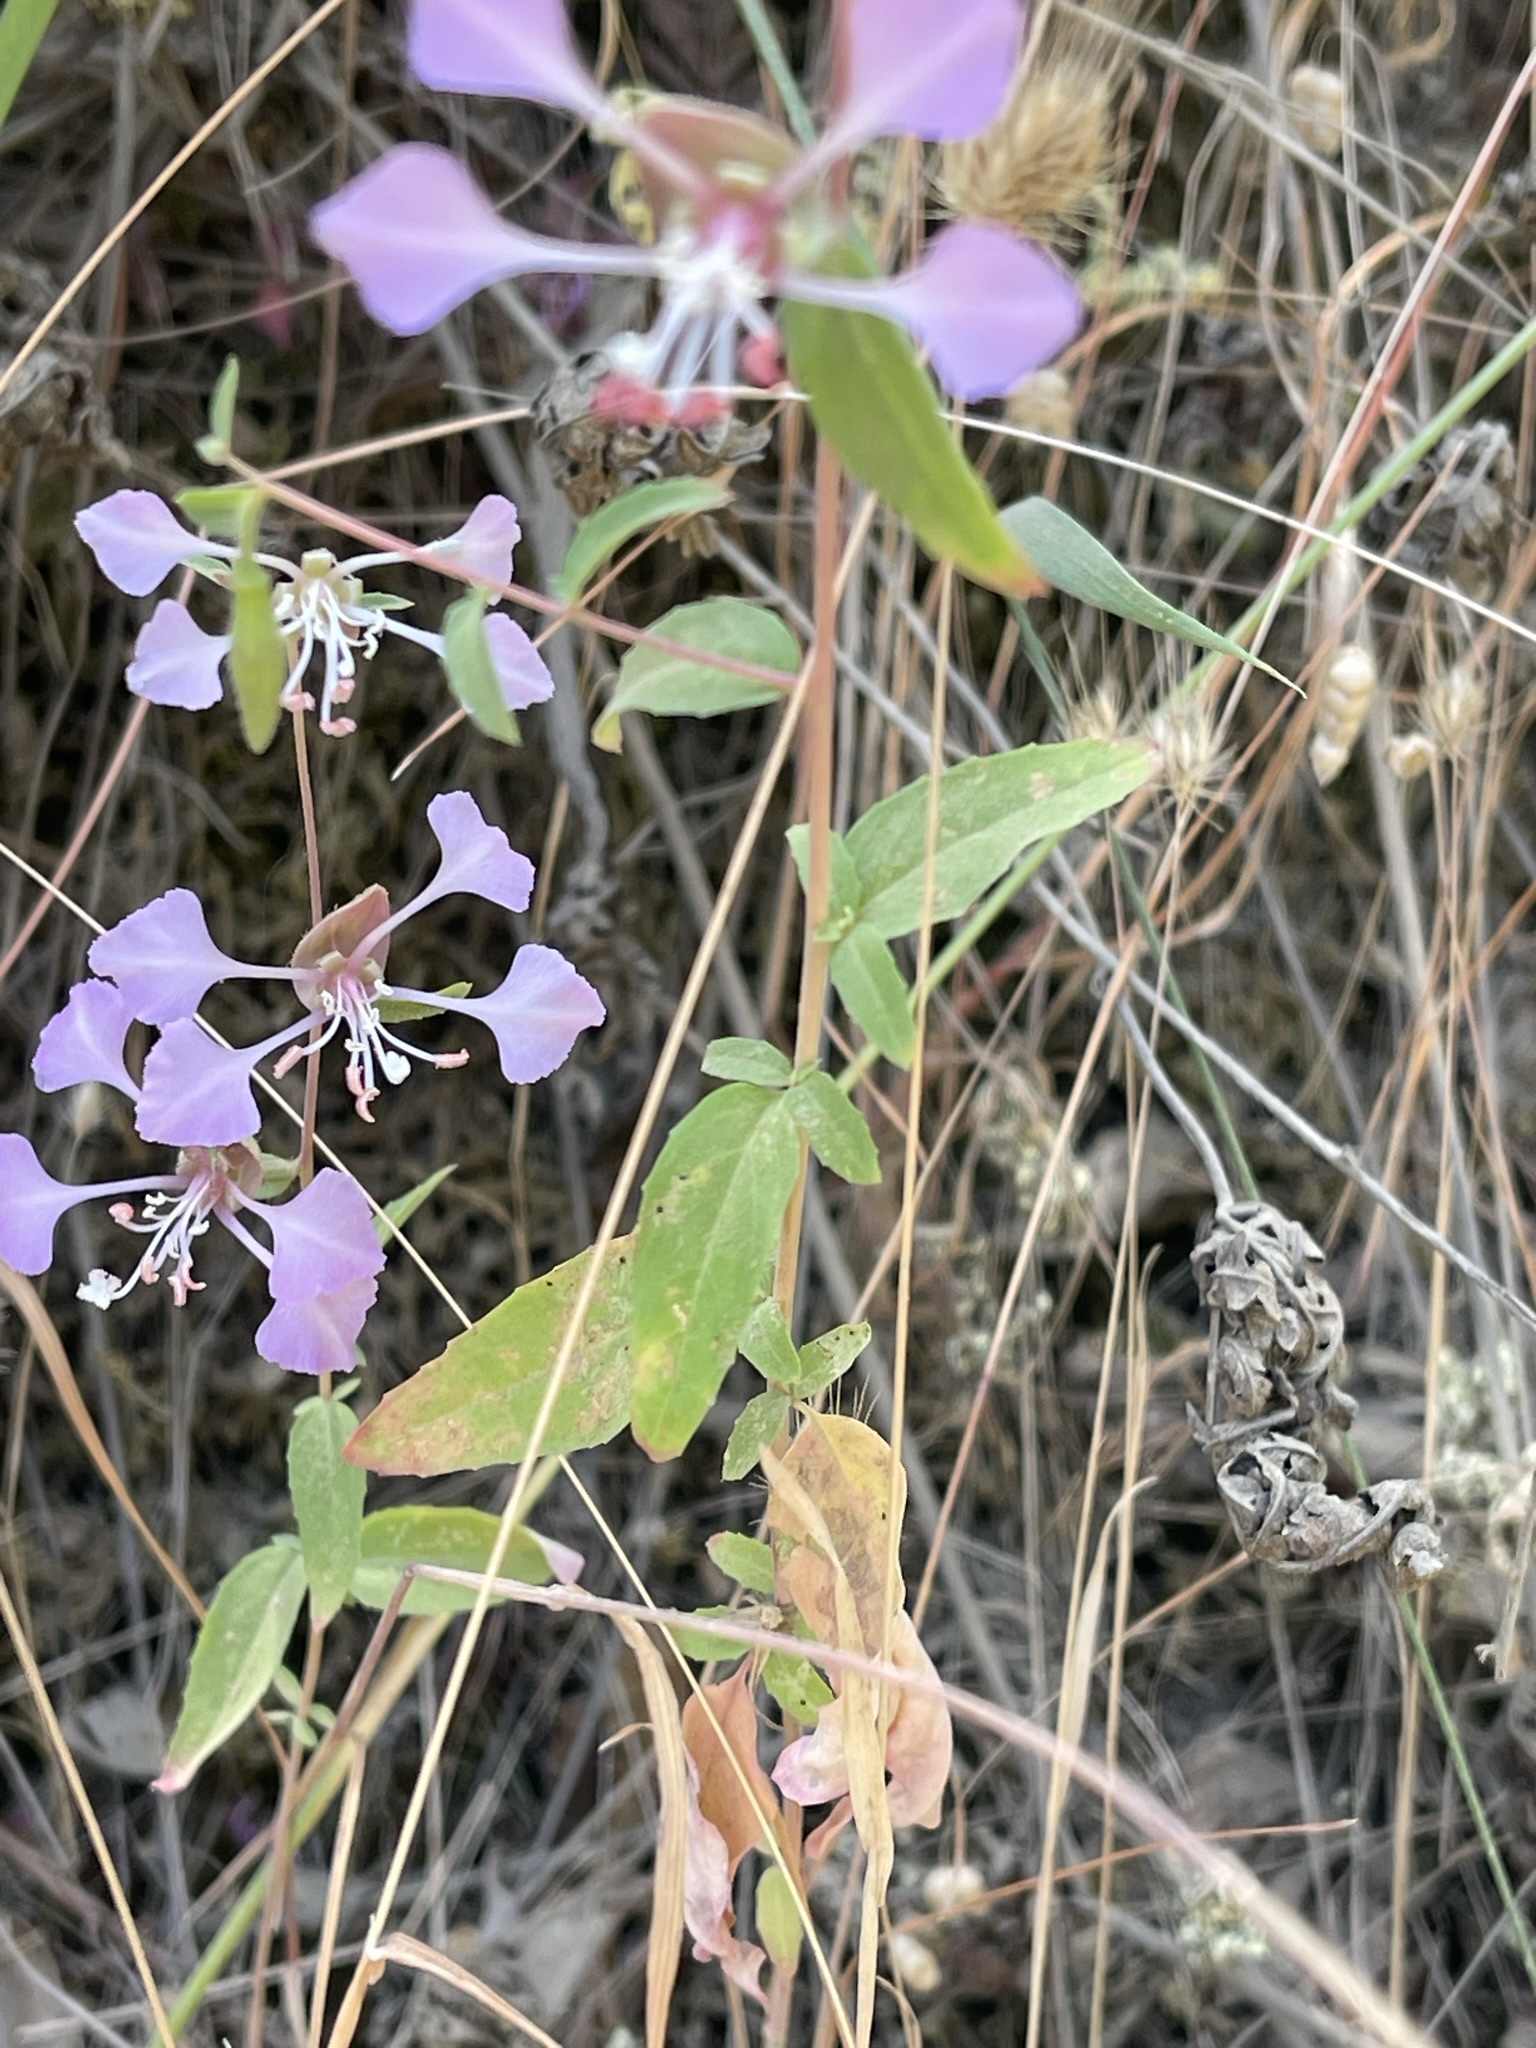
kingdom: Plantae
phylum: Tracheophyta
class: Magnoliopsida
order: Myrtales
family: Onagraceae
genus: Clarkia
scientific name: Clarkia unguiculata
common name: Clarkia
